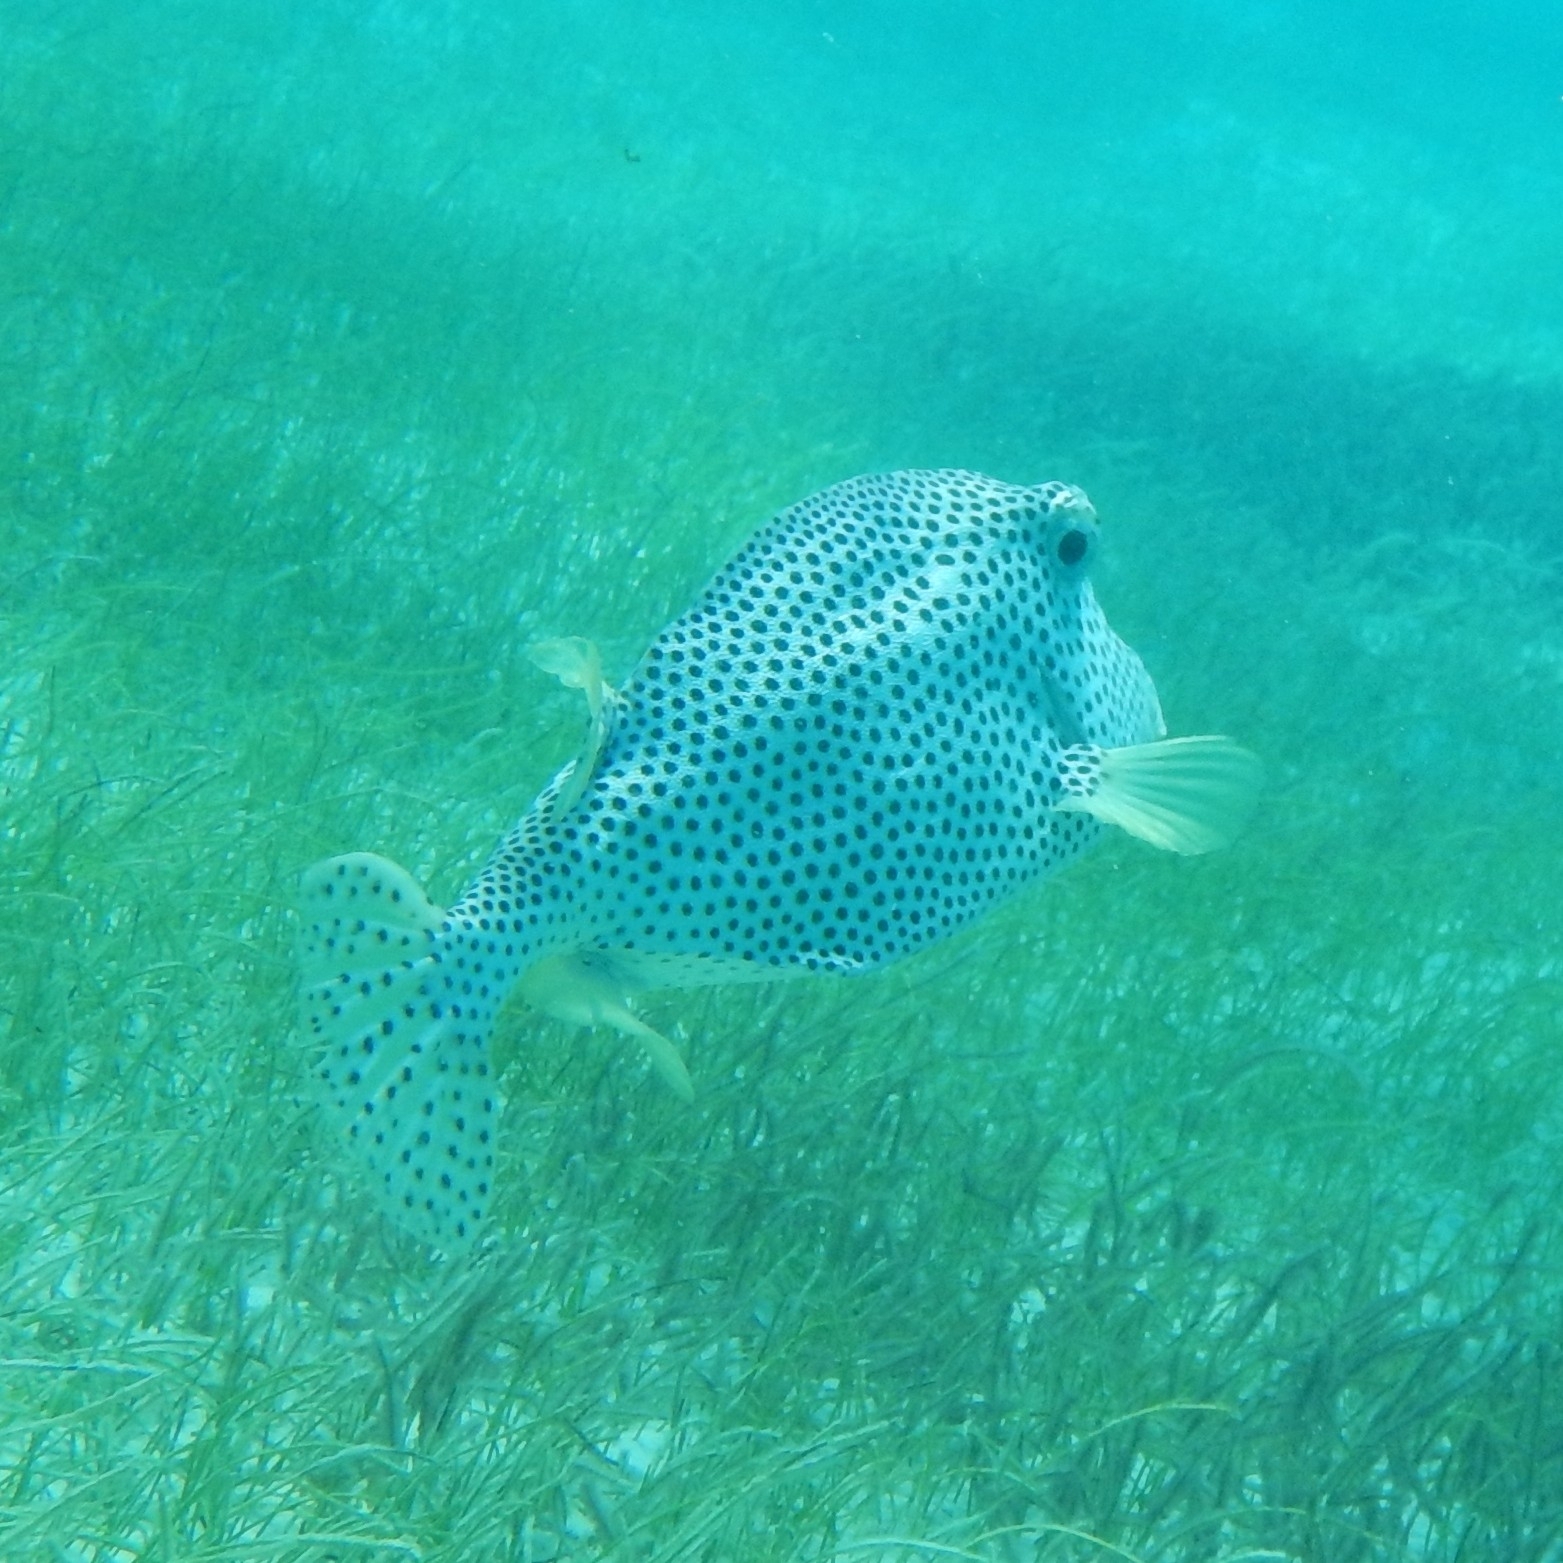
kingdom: Animalia
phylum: Chordata
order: Tetraodontiformes
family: Ostraciidae
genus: Lactophrys
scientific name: Lactophrys bicaudalis
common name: Spotted trunkfish
